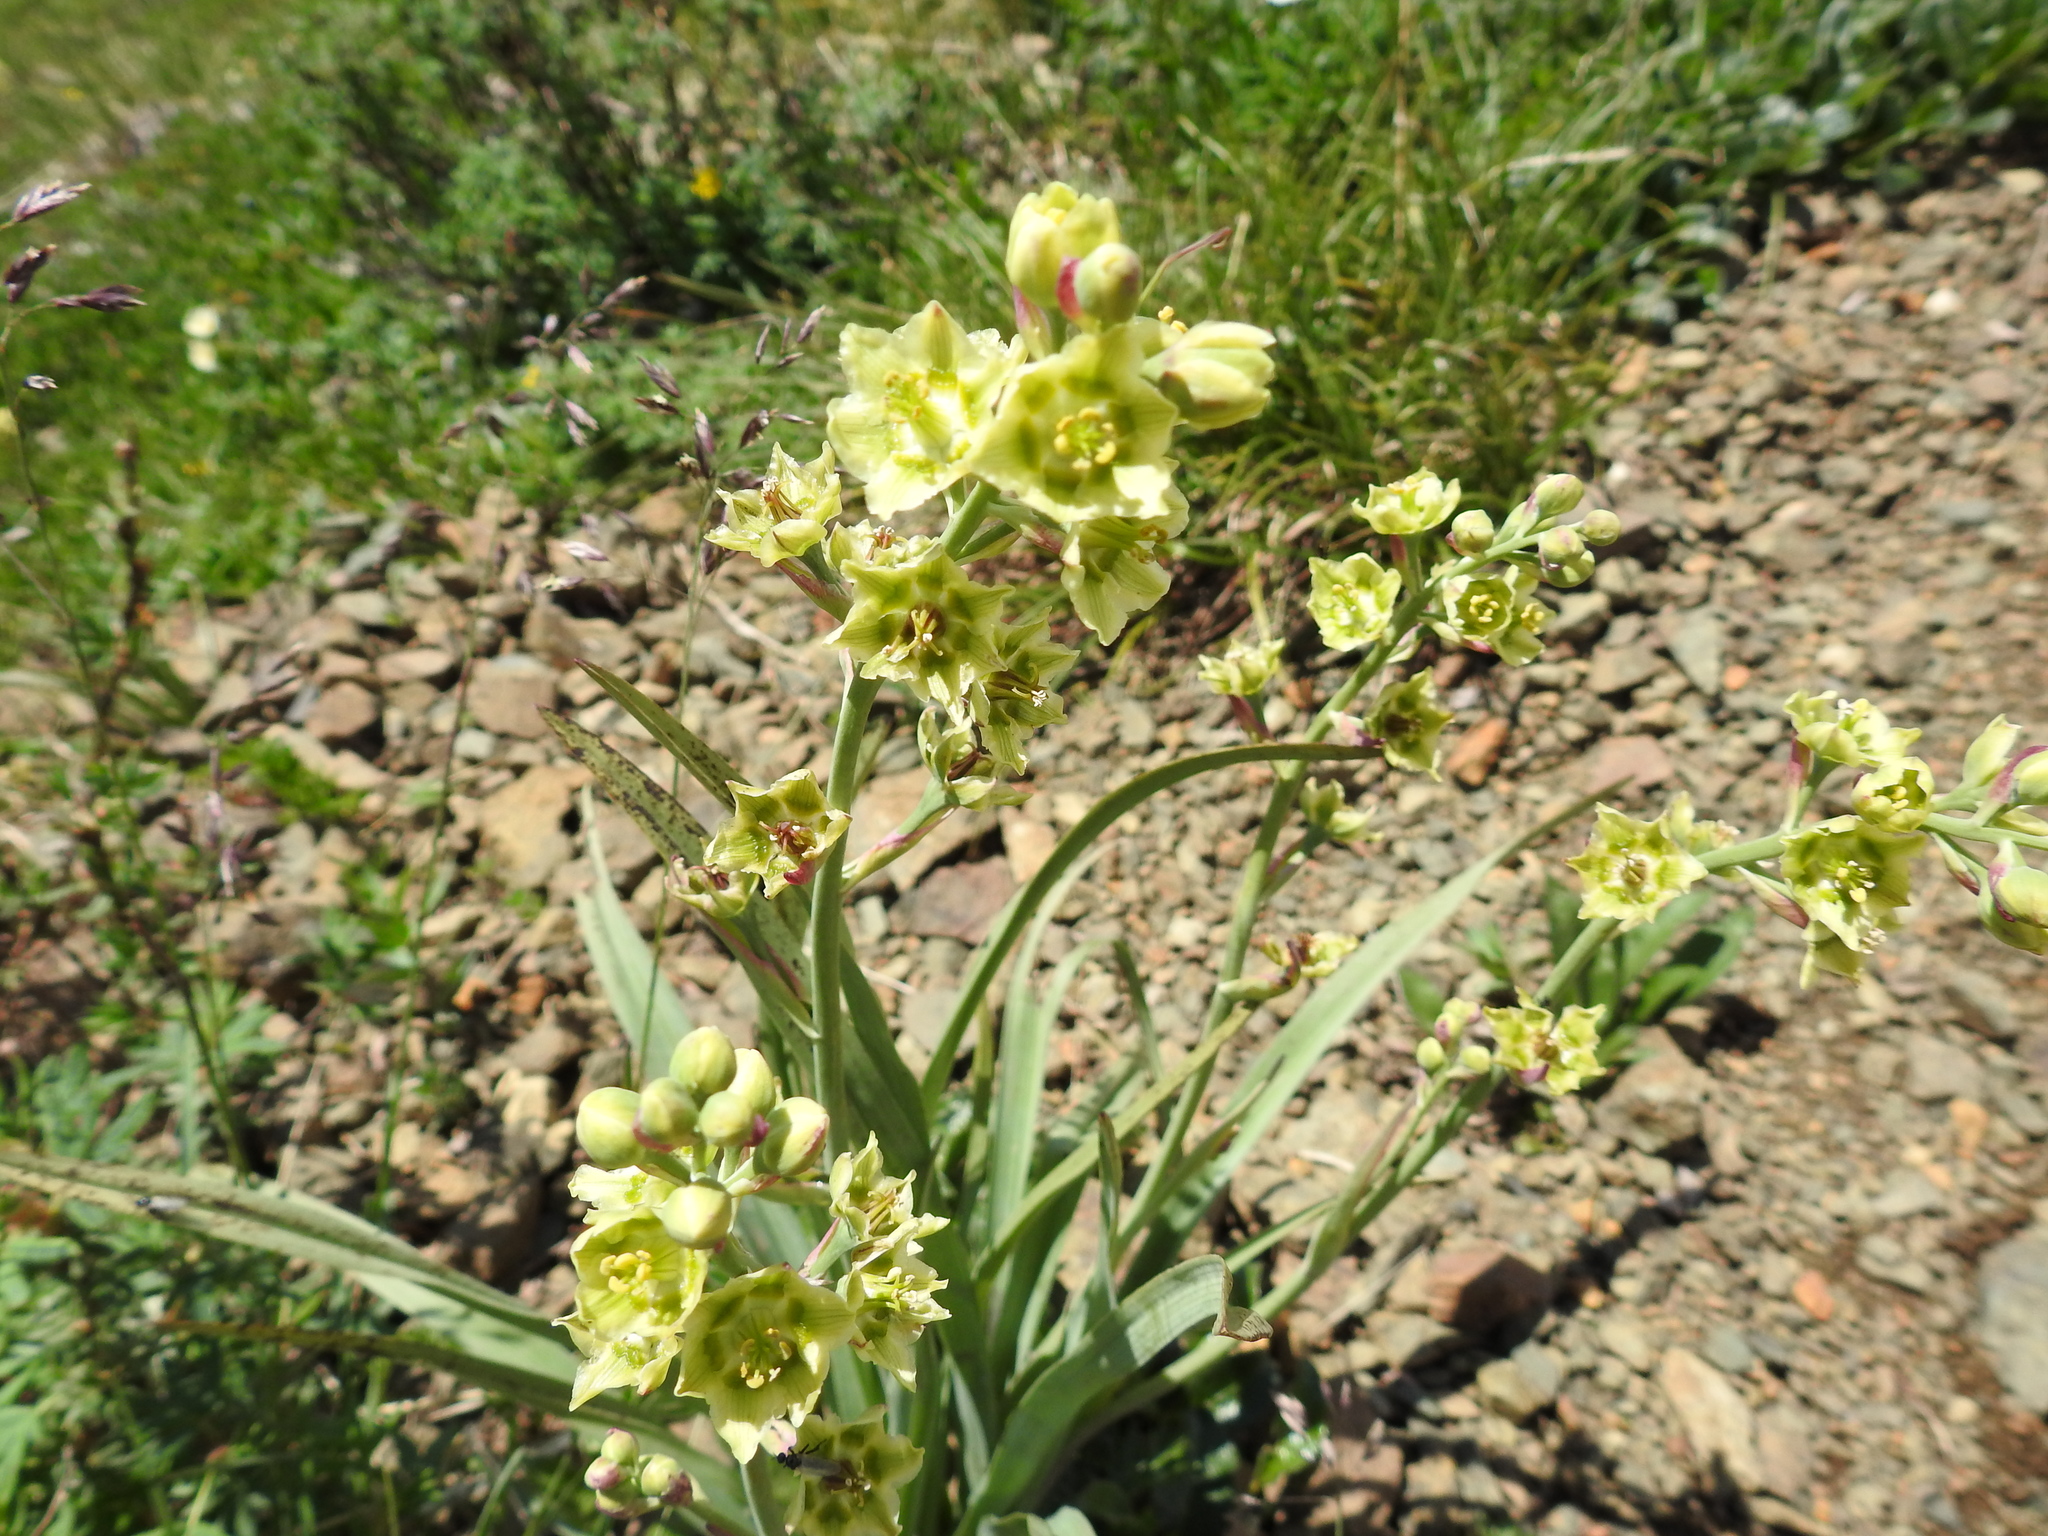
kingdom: Plantae
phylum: Tracheophyta
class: Liliopsida
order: Liliales
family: Melanthiaceae
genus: Anticlea
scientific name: Anticlea elegans
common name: Mountain death camas
